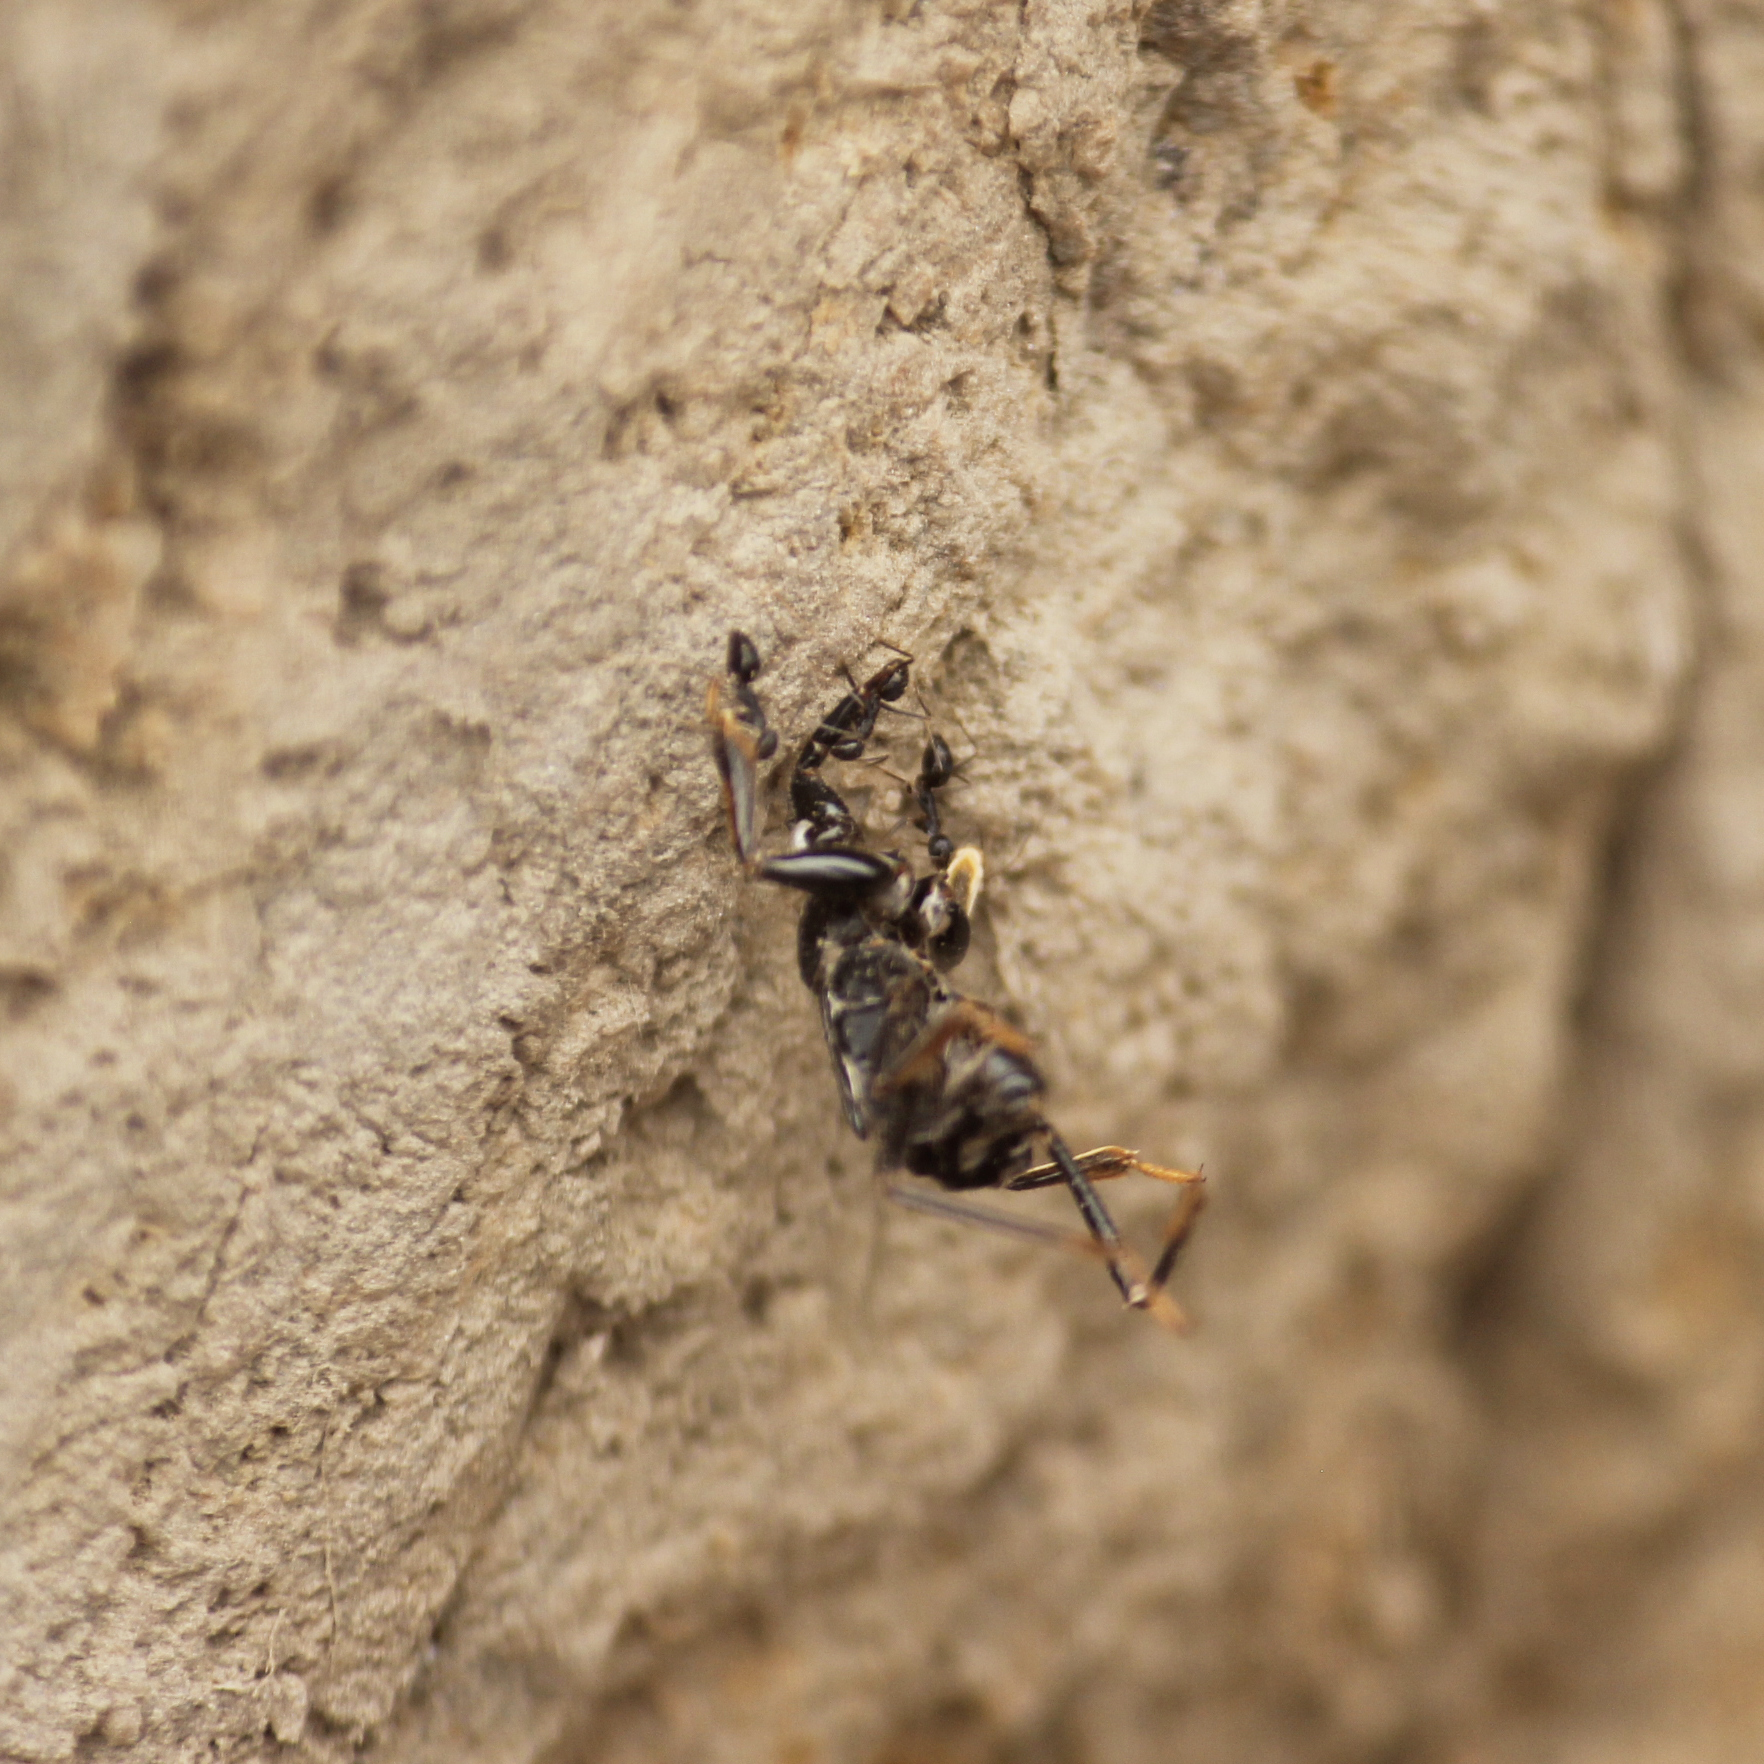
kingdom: Animalia
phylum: Arthropoda
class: Insecta
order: Hymenoptera
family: Formicidae
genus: Paratrechina
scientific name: Paratrechina longicornis
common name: Longhorned crazy ant
